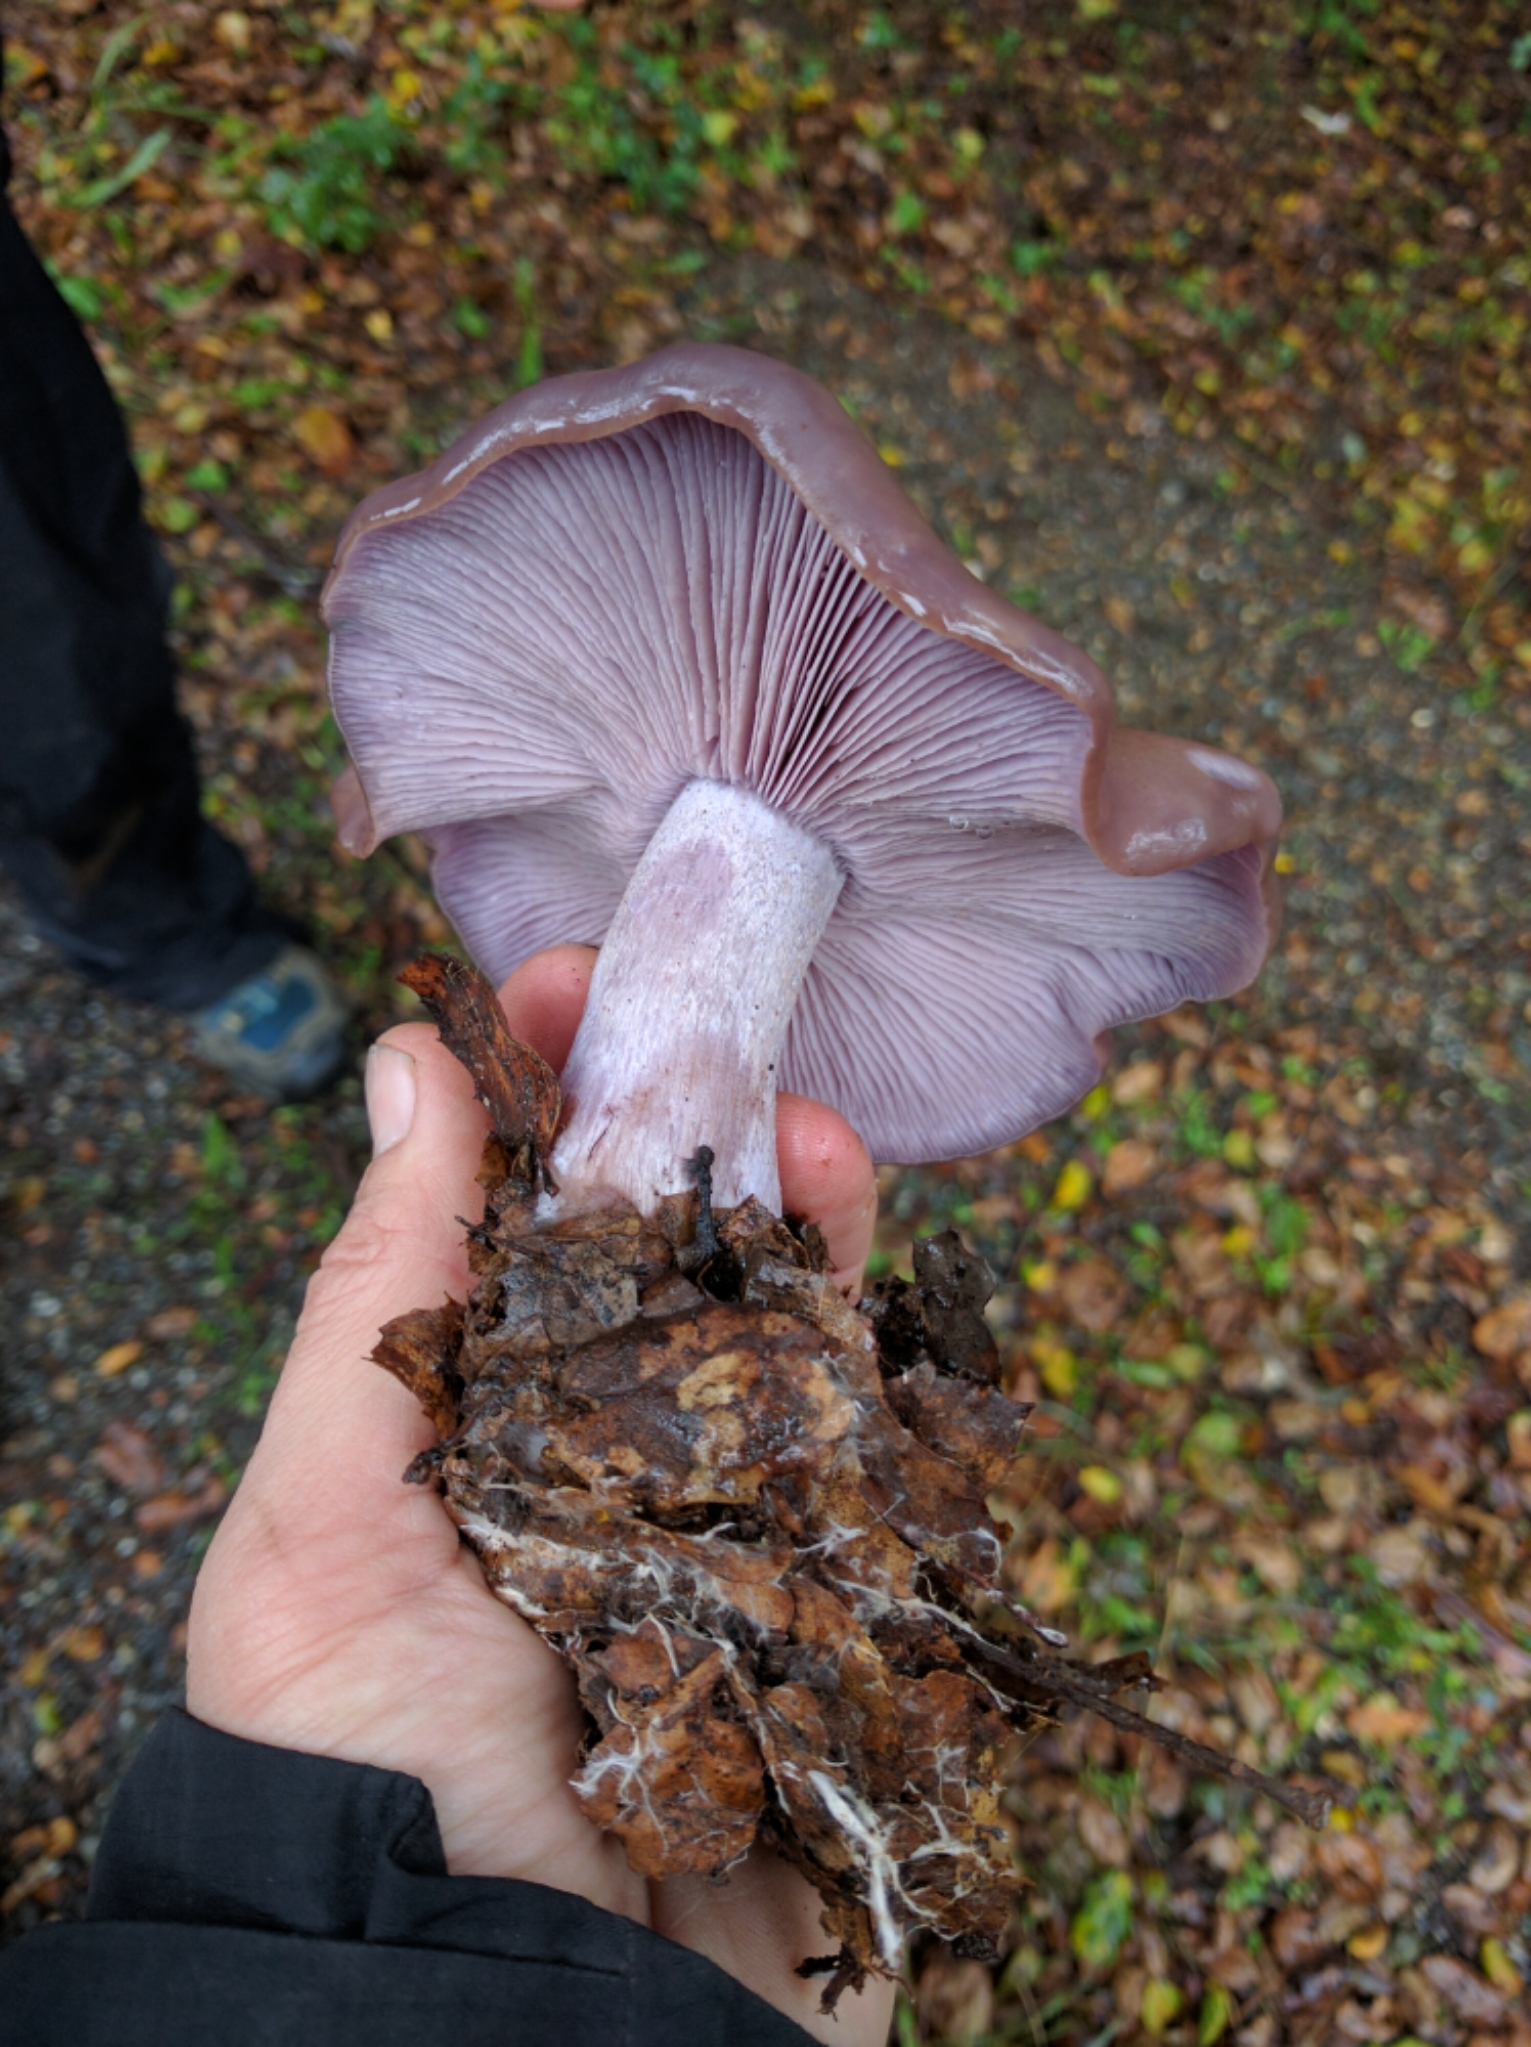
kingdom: Fungi
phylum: Basidiomycota
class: Agaricomycetes
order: Agaricales
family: Tricholomataceae
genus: Collybia
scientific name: Collybia
